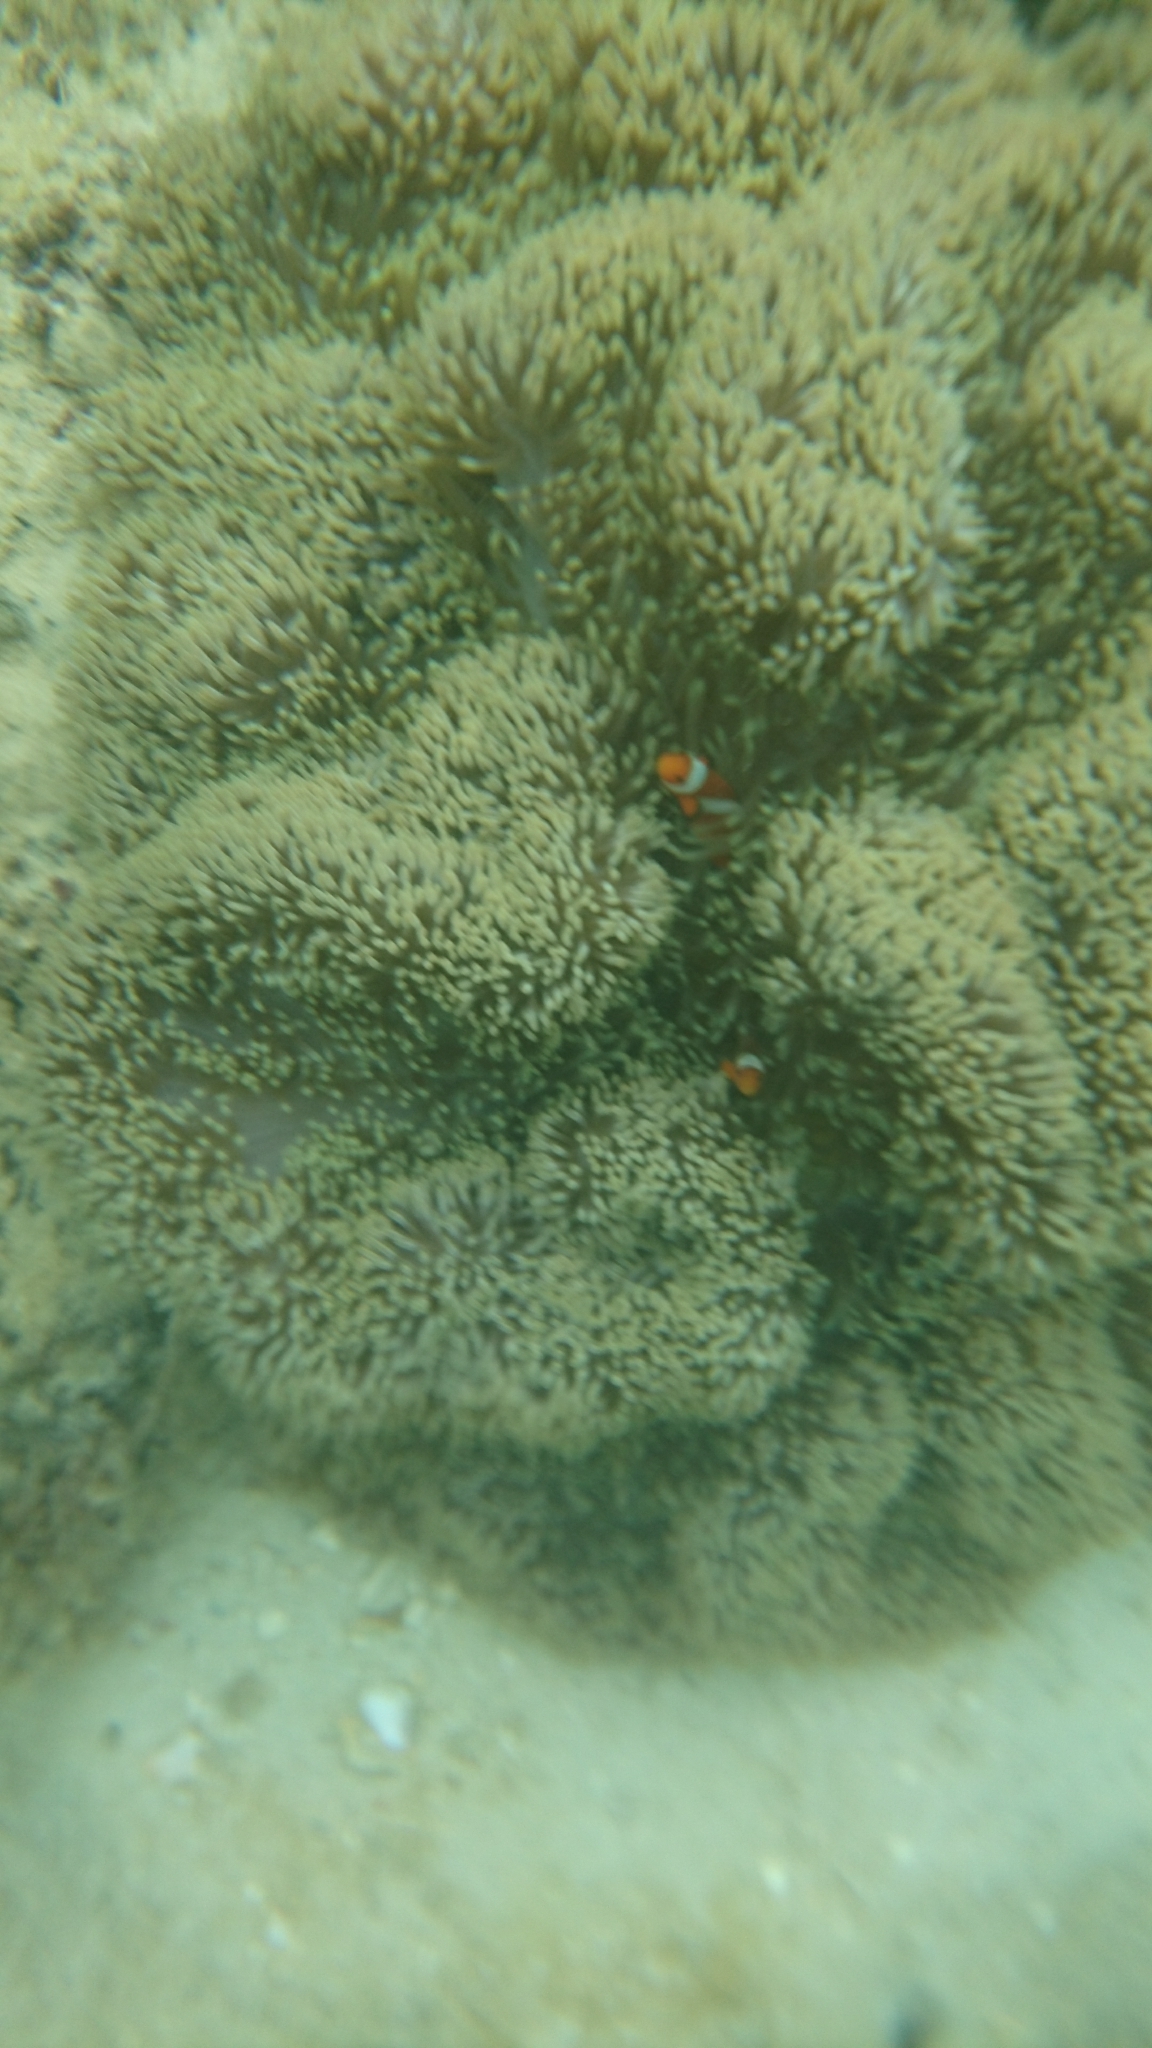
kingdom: Animalia
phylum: Cnidaria
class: Anthozoa
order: Actiniaria
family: Stichodactylidae
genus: Stichodactyla
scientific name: Stichodactyla gigantea
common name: Giant anemone
